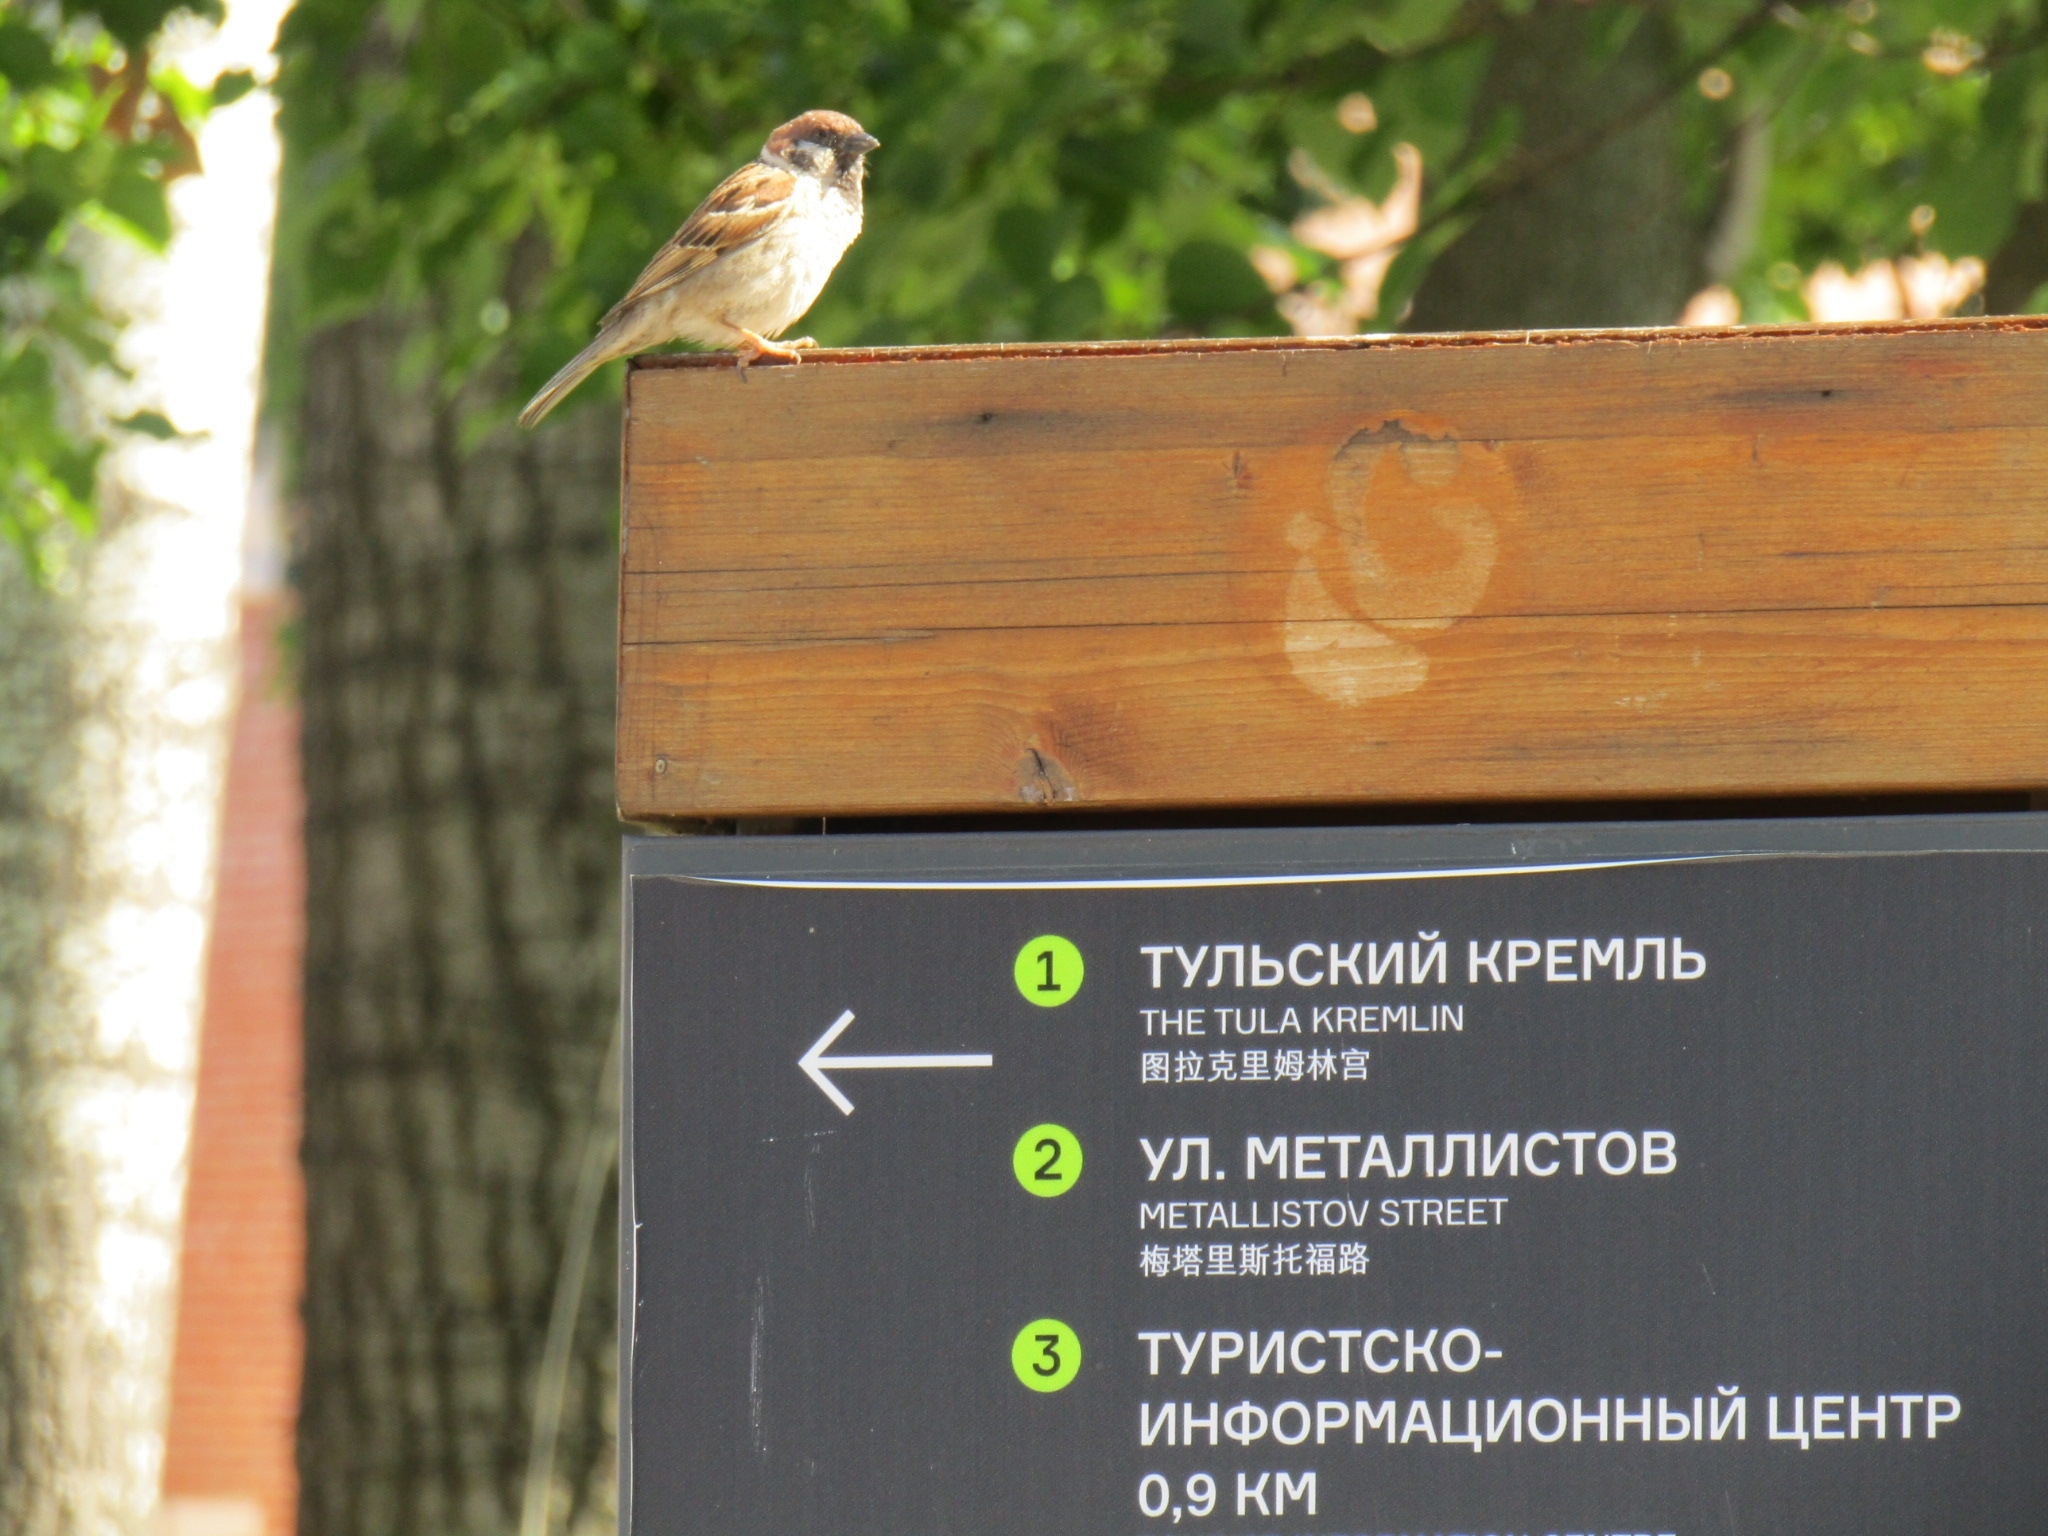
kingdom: Animalia
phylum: Chordata
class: Aves
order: Passeriformes
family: Passeridae
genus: Passer
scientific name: Passer montanus
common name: Eurasian tree sparrow
